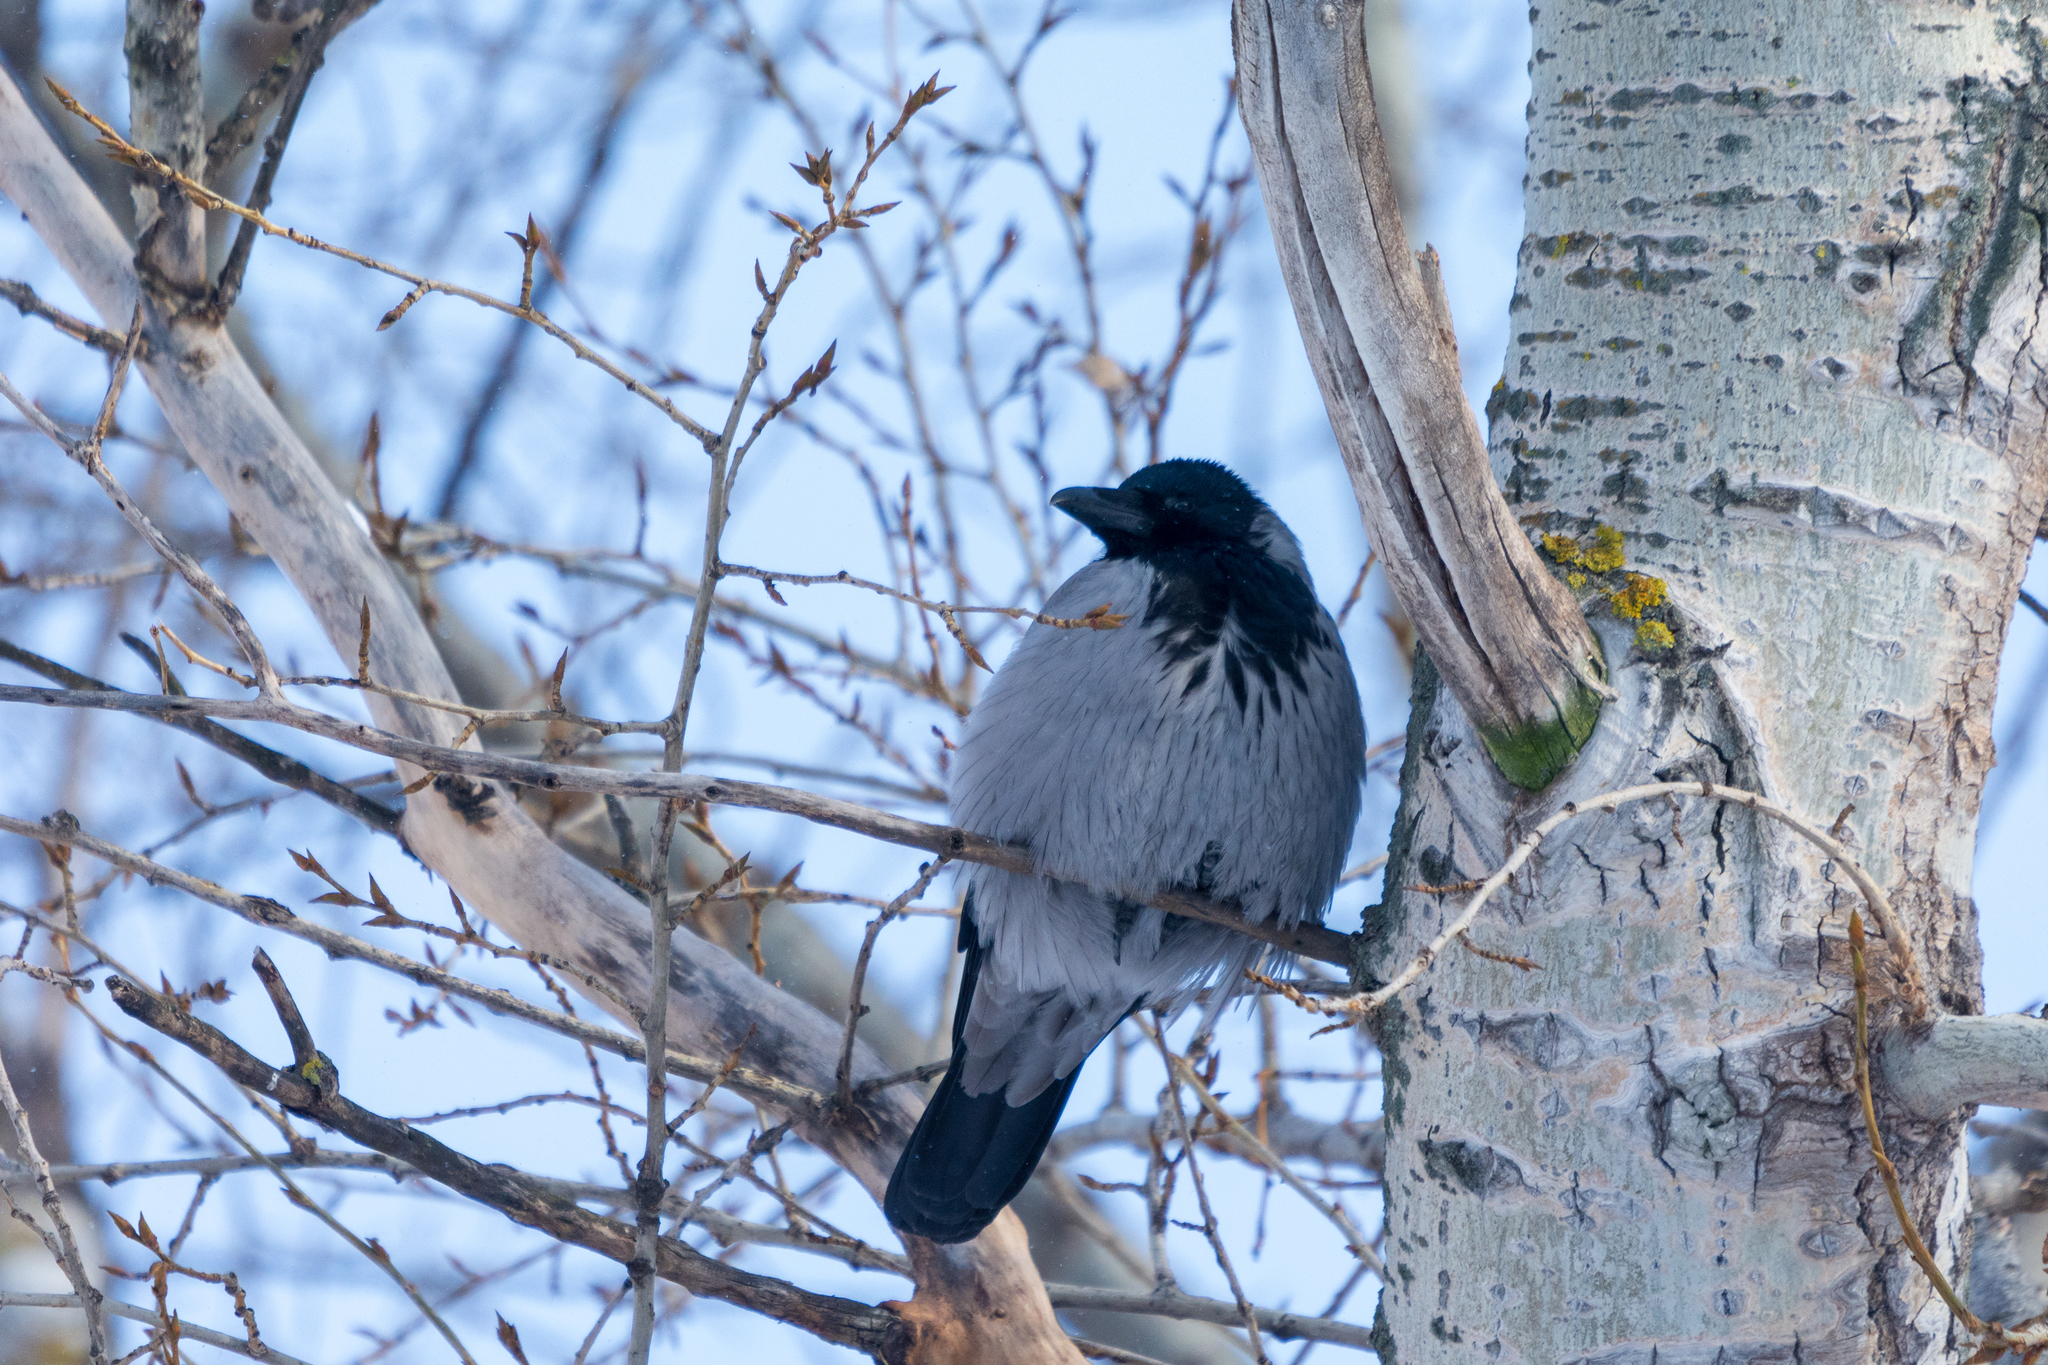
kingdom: Animalia
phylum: Chordata
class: Aves
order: Passeriformes
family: Corvidae
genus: Corvus
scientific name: Corvus cornix
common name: Hooded crow
